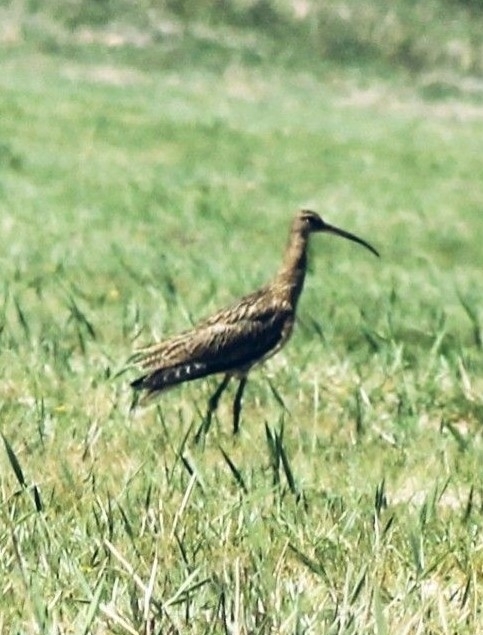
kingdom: Animalia
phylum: Chordata
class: Aves
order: Charadriiformes
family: Scolopacidae
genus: Numenius
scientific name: Numenius arquata
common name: Eurasian curlew
